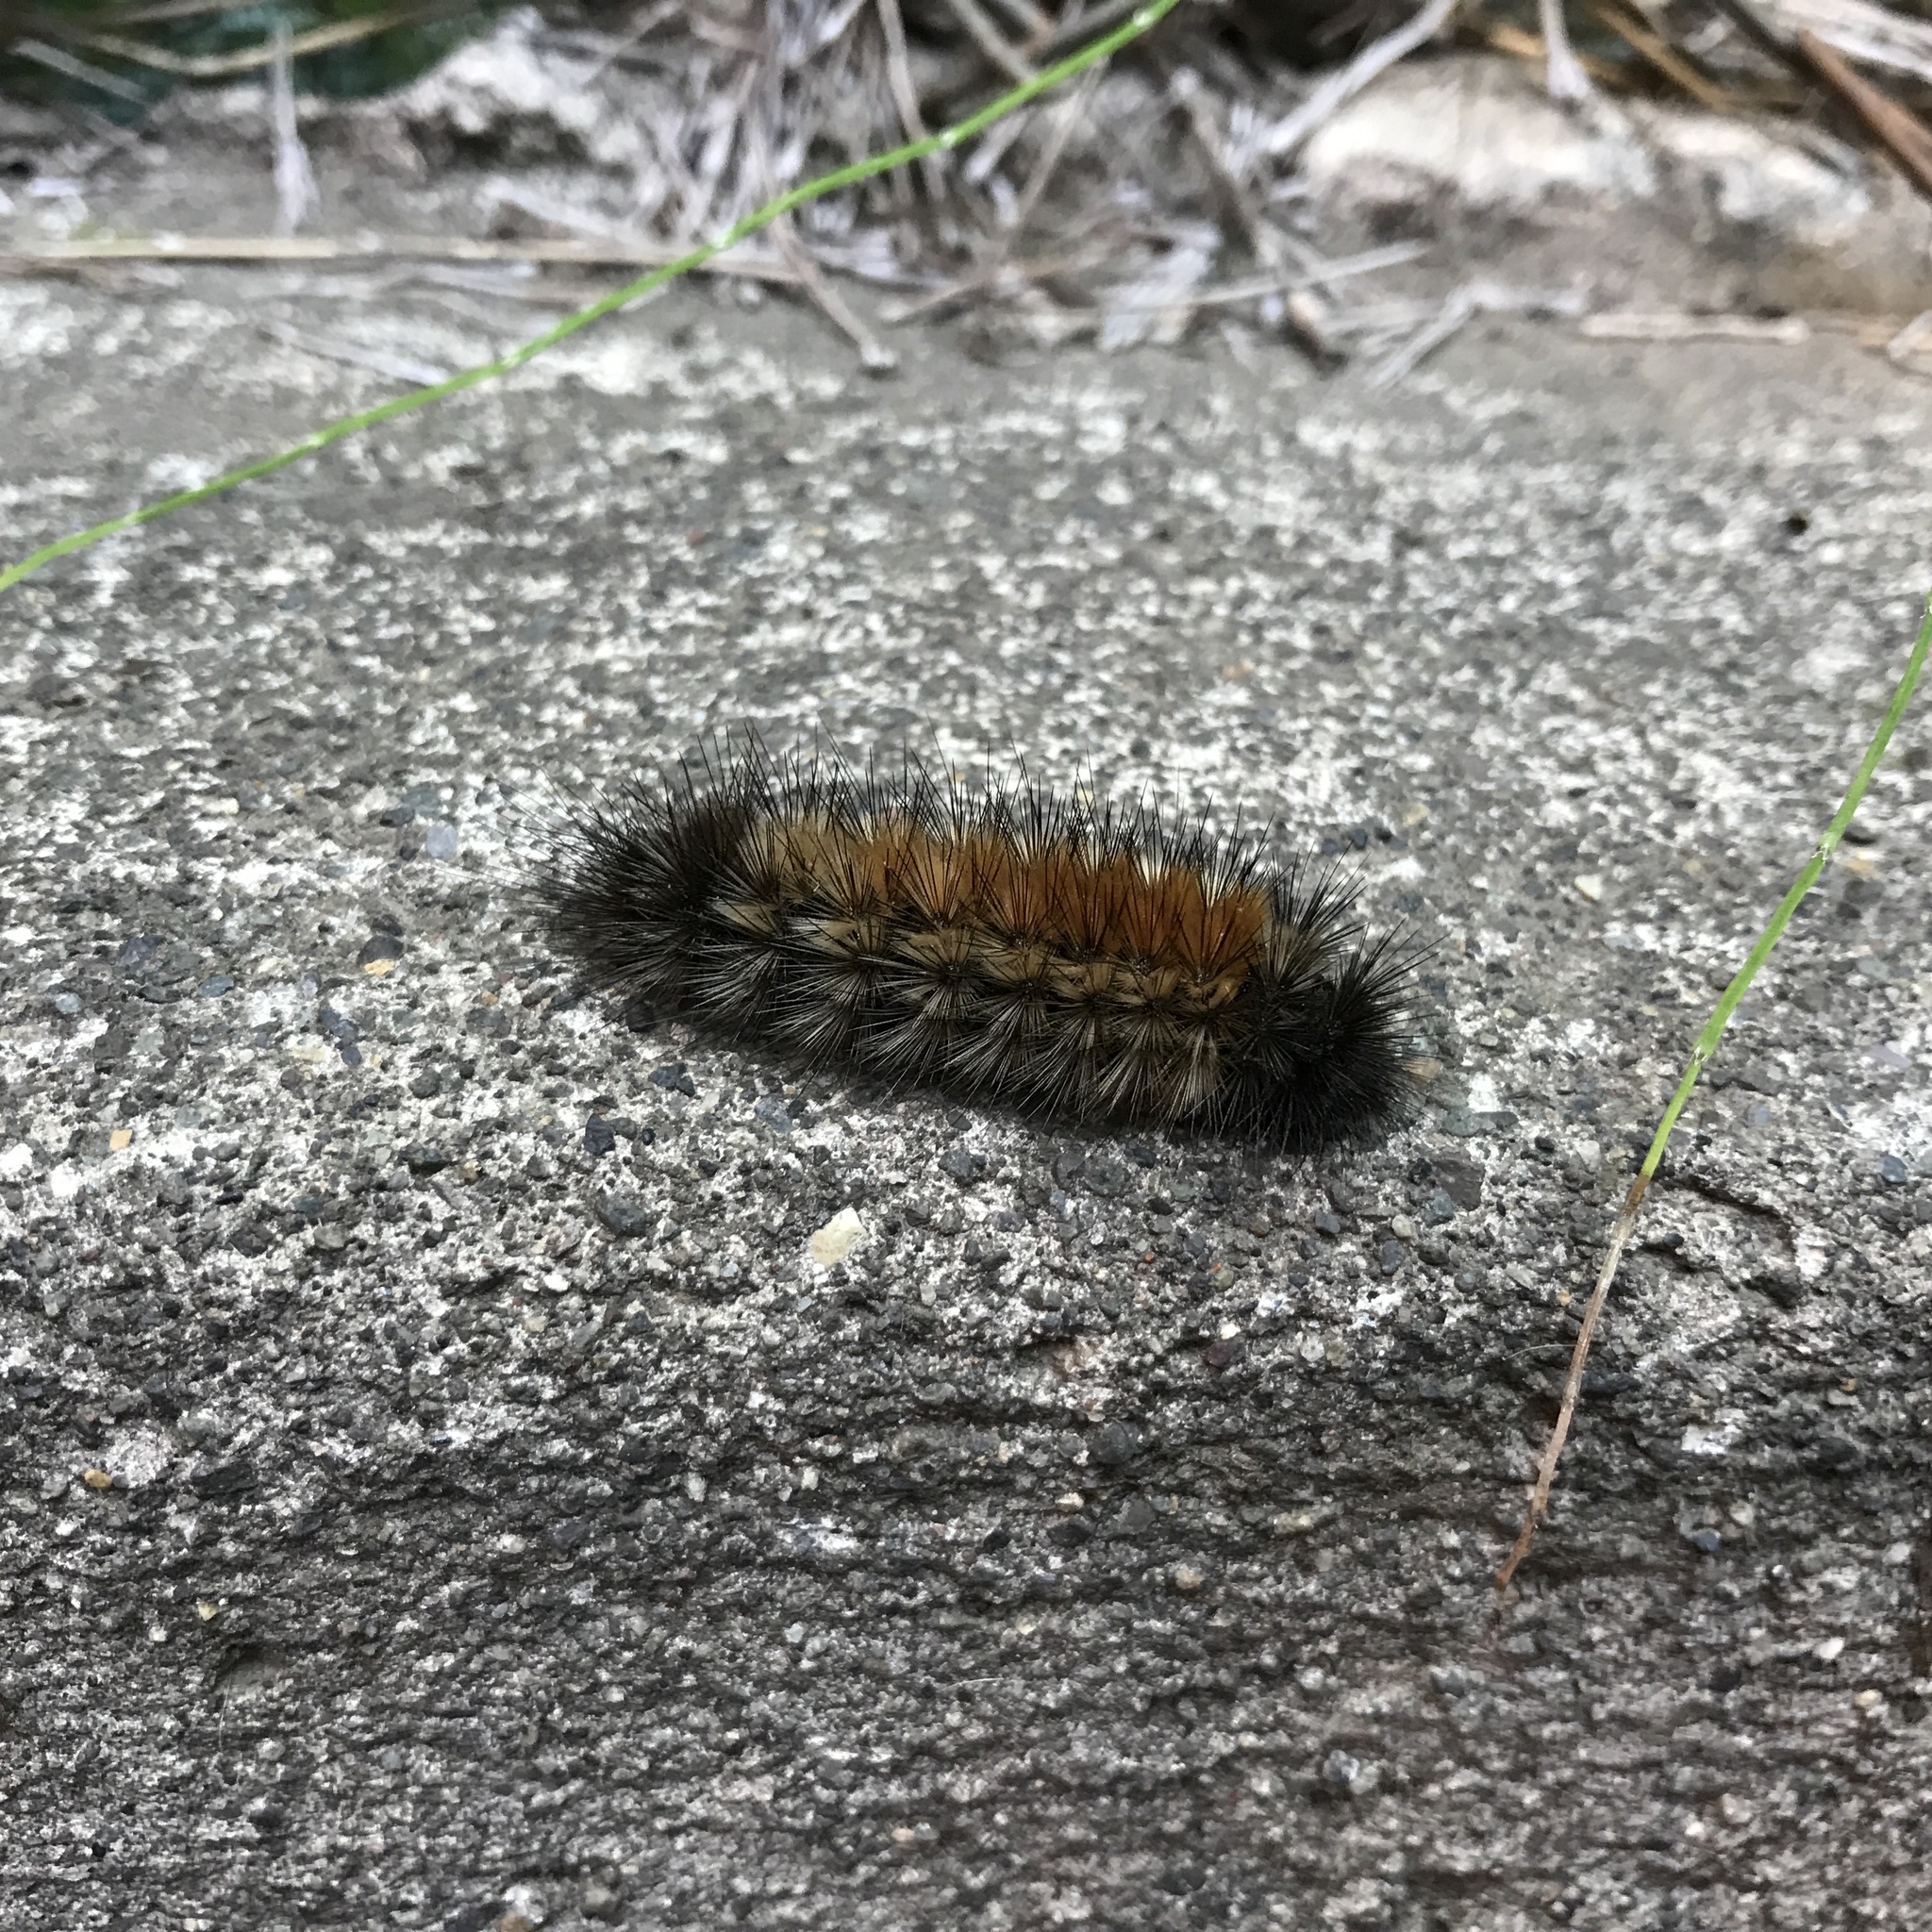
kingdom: Animalia
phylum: Arthropoda
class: Insecta
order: Lepidoptera
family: Erebidae
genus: Chilesia
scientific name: Chilesia
